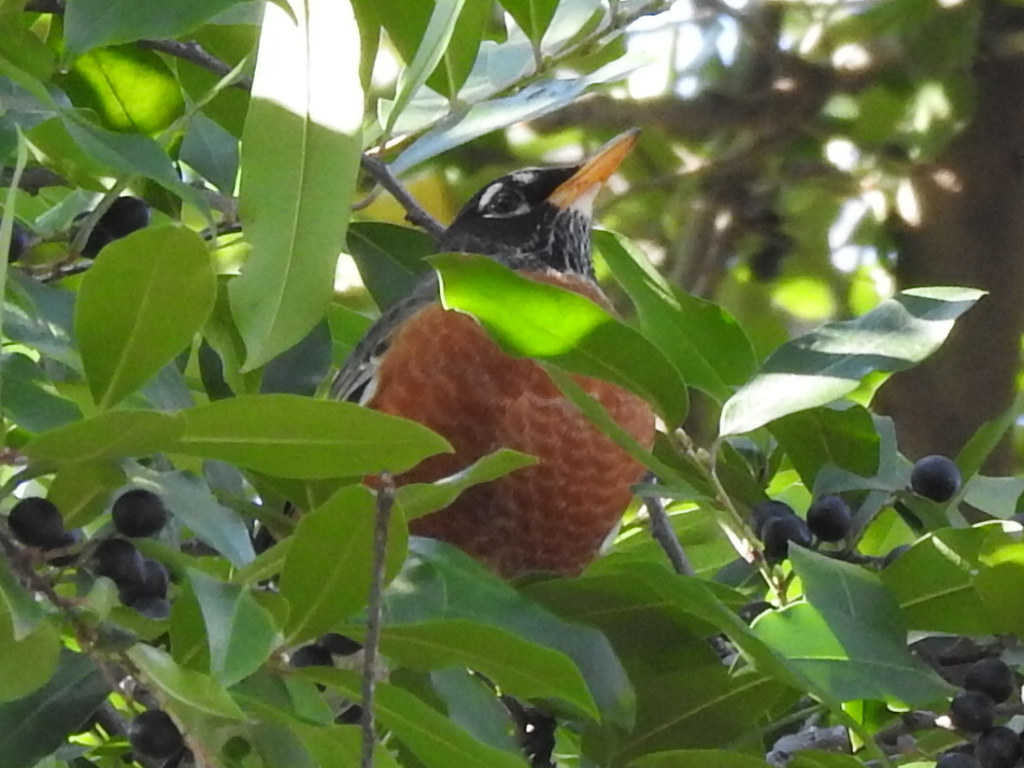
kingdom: Animalia
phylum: Chordata
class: Aves
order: Passeriformes
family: Turdidae
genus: Turdus
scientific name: Turdus migratorius
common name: American robin
